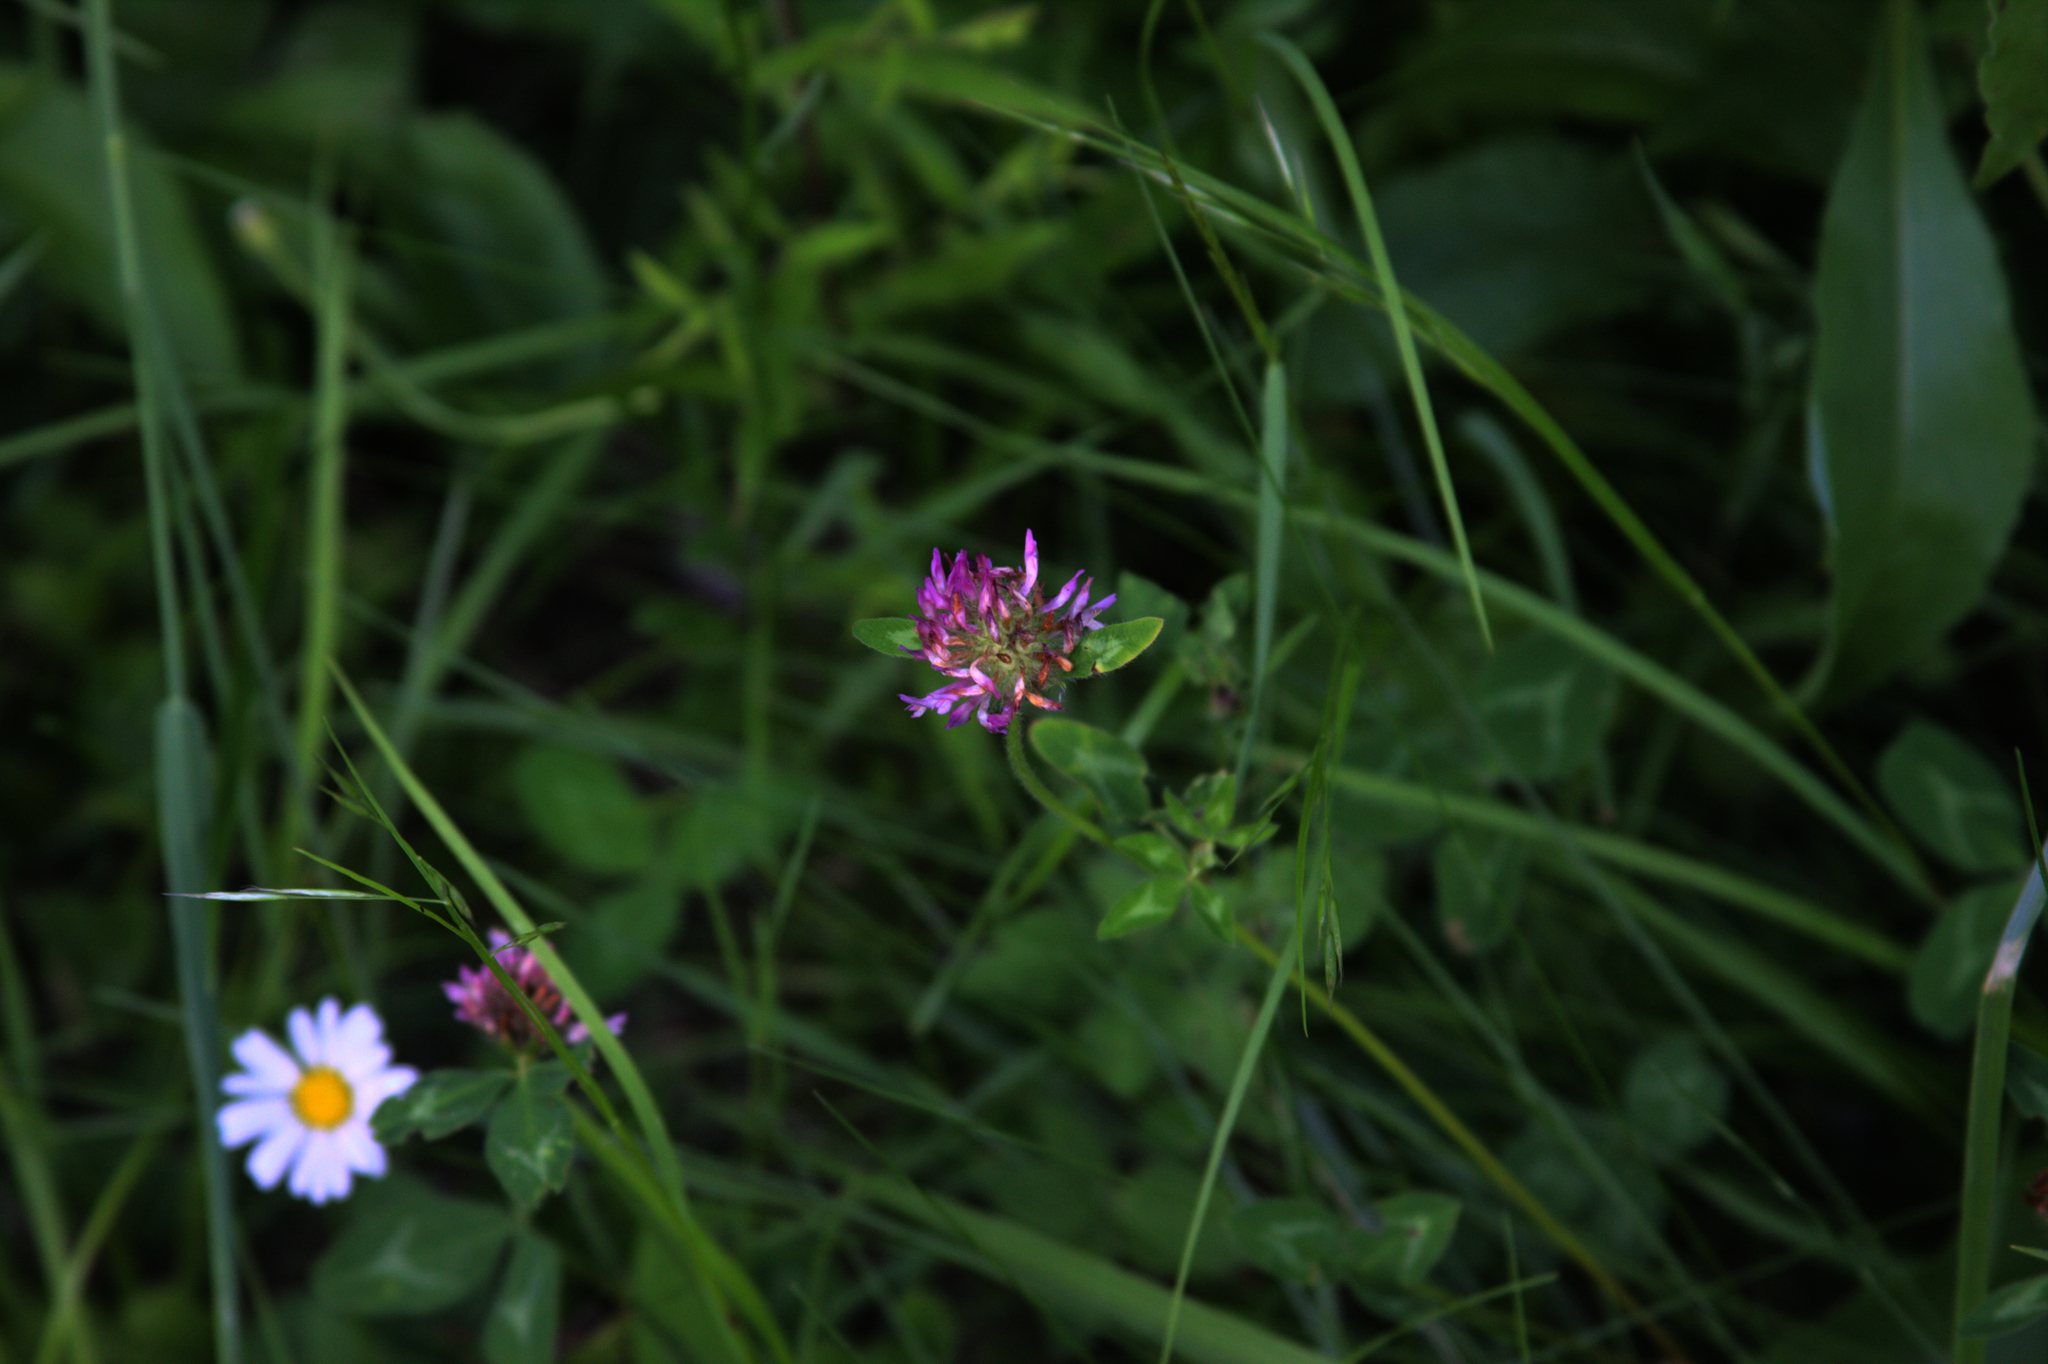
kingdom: Plantae
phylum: Tracheophyta
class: Magnoliopsida
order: Fabales
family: Fabaceae
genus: Trifolium
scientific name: Trifolium pratense
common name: Red clover
